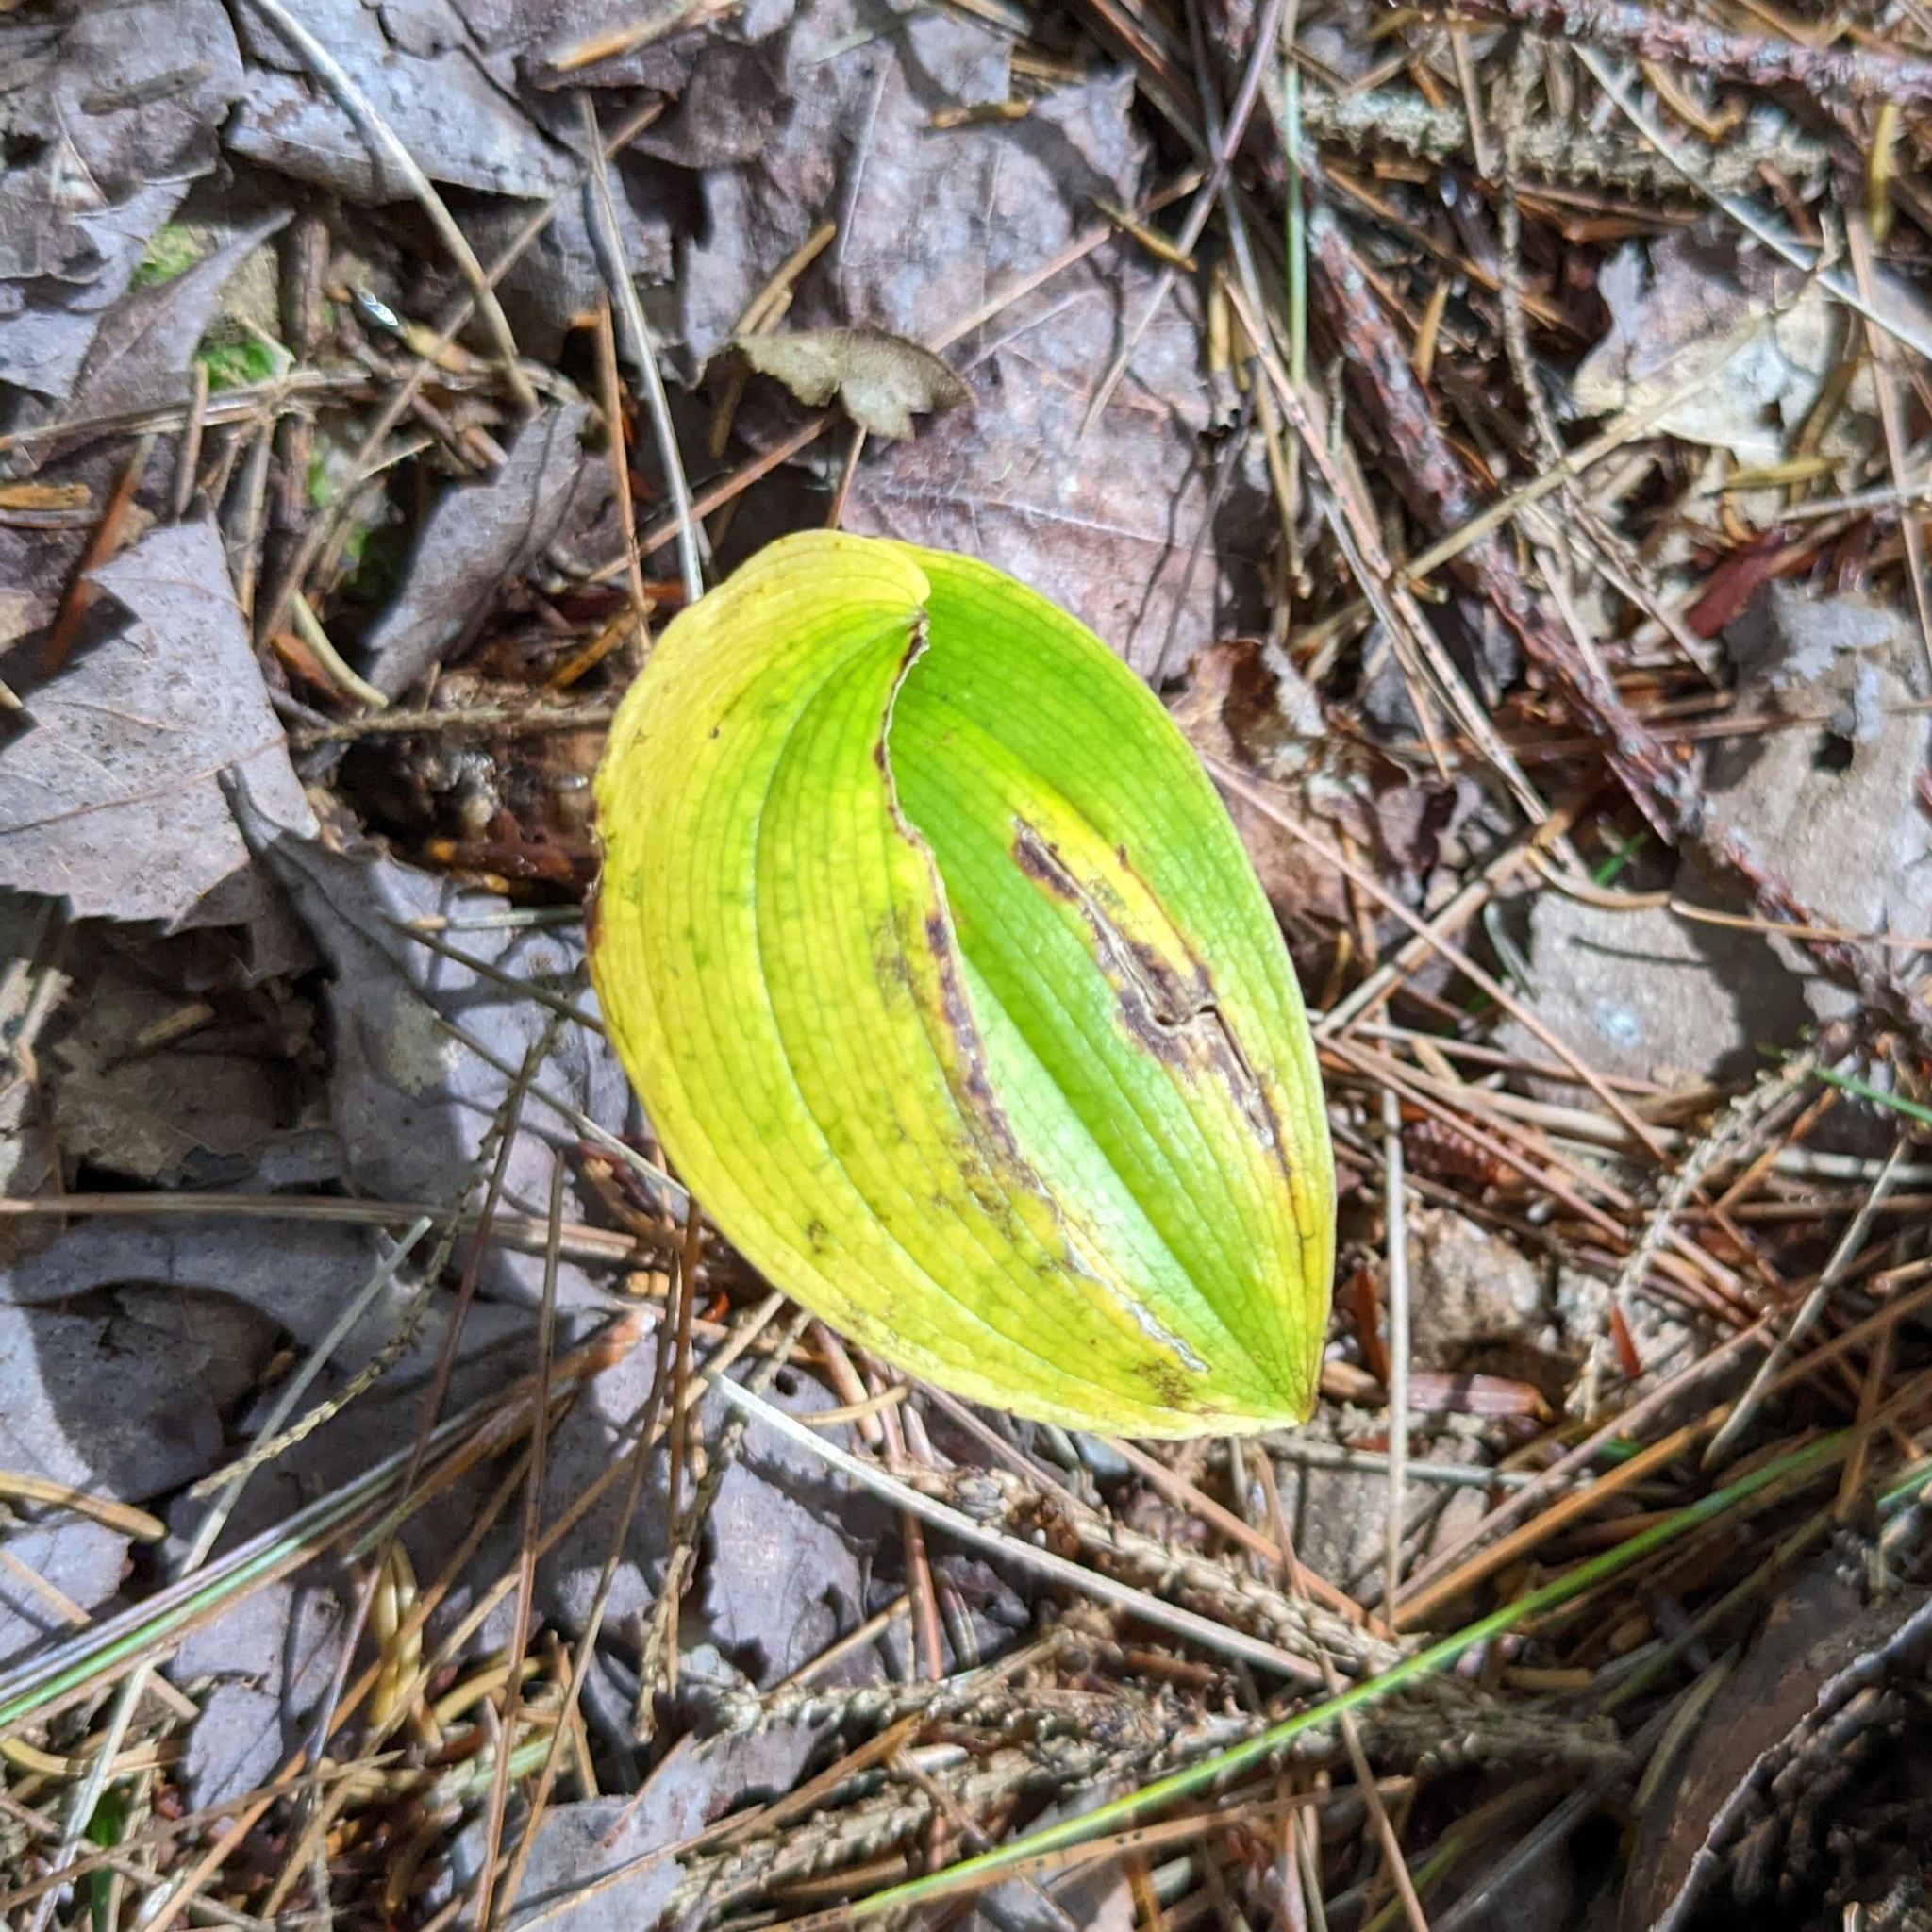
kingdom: Plantae
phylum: Tracheophyta
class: Liliopsida
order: Asparagales
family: Asparagaceae
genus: Maianthemum
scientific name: Maianthemum canadense
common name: False lily-of-the-valley
